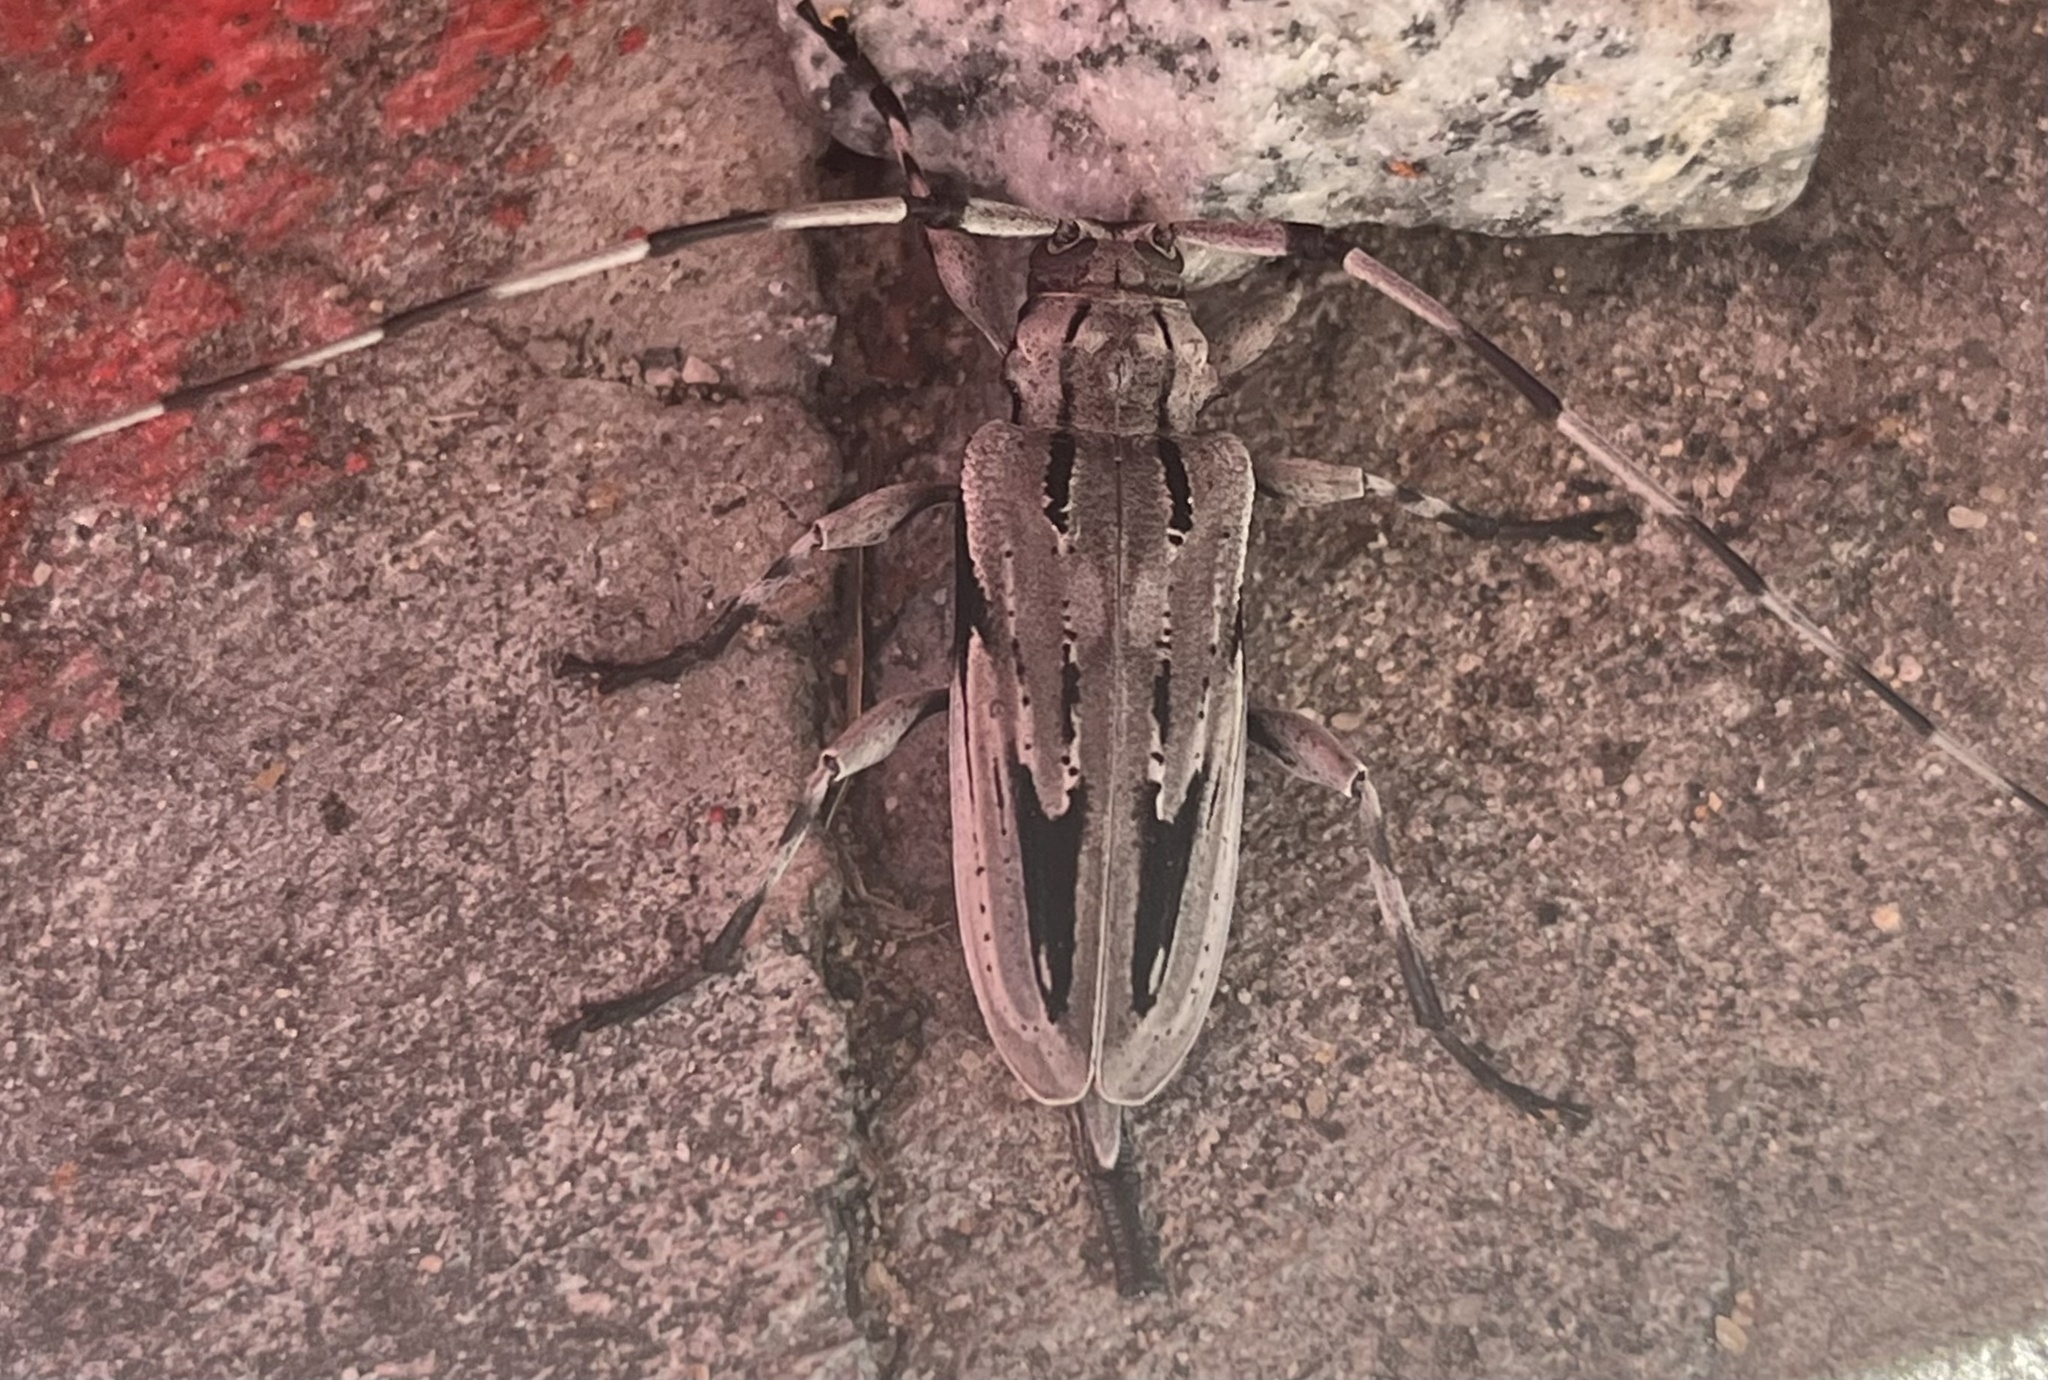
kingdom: Animalia
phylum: Arthropoda
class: Insecta
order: Coleoptera
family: Cerambycidae
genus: Acanthocinus
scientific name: Acanthocinus nodosus
